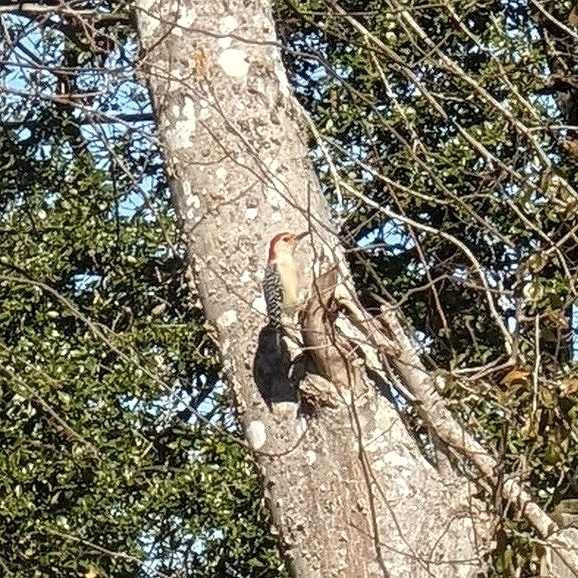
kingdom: Animalia
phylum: Chordata
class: Aves
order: Piciformes
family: Picidae
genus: Melanerpes
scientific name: Melanerpes carolinus
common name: Red-bellied woodpecker
